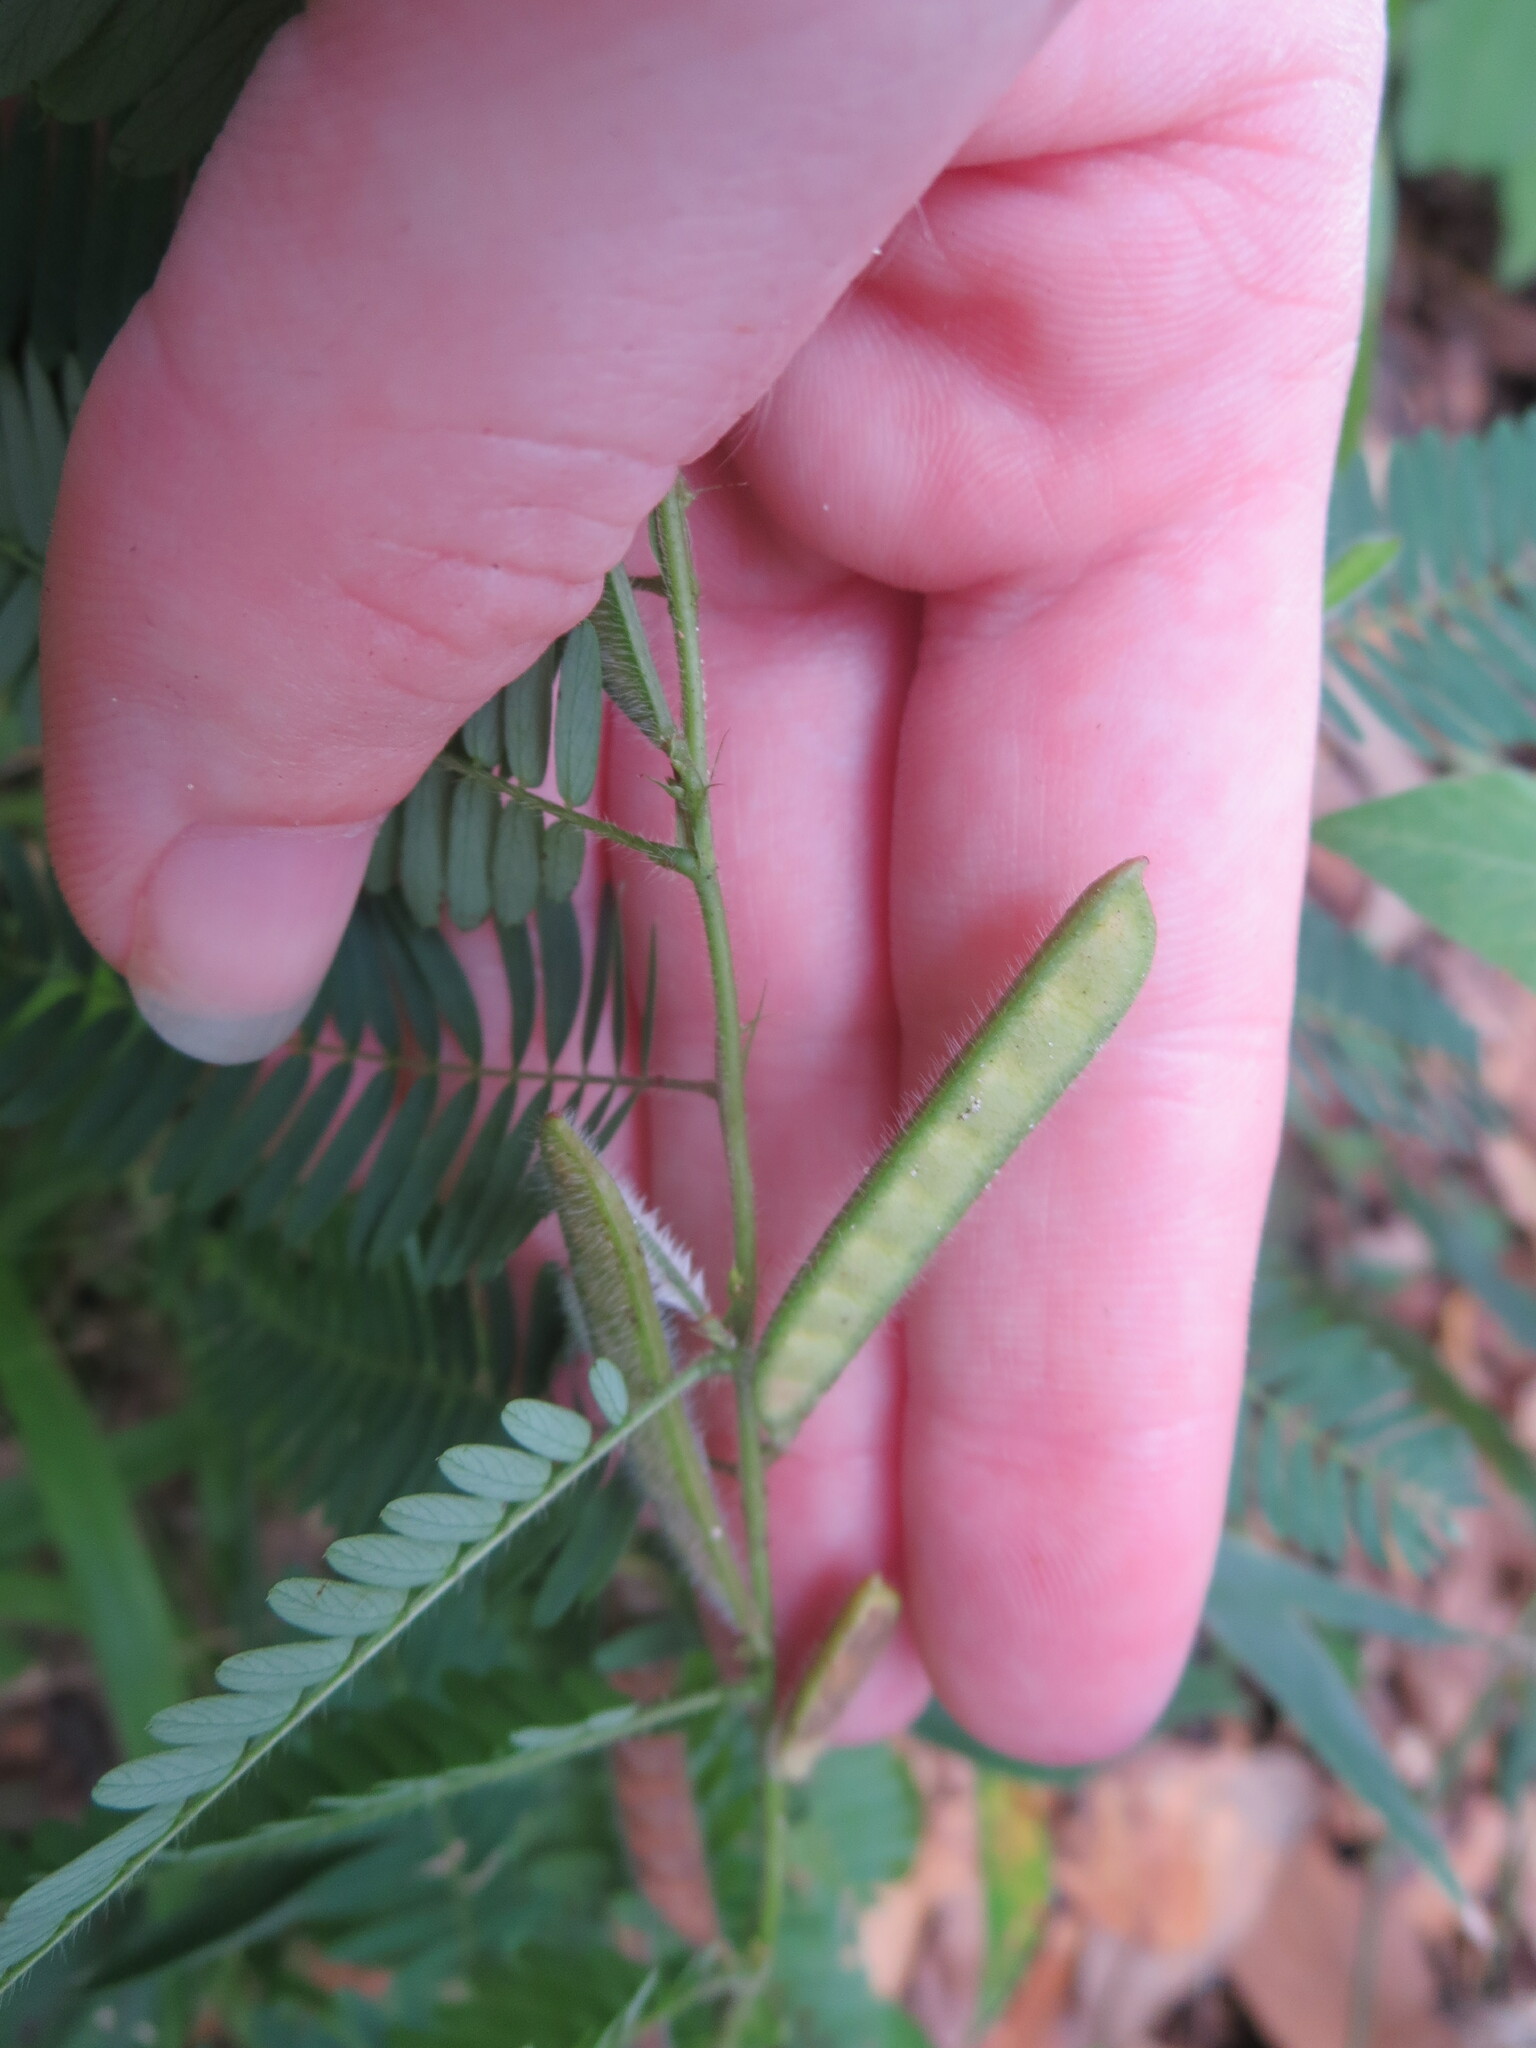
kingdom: Plantae
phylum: Tracheophyta
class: Magnoliopsida
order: Fabales
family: Fabaceae
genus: Chamaecrista
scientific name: Chamaecrista nictitans
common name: Sensitive cassia
